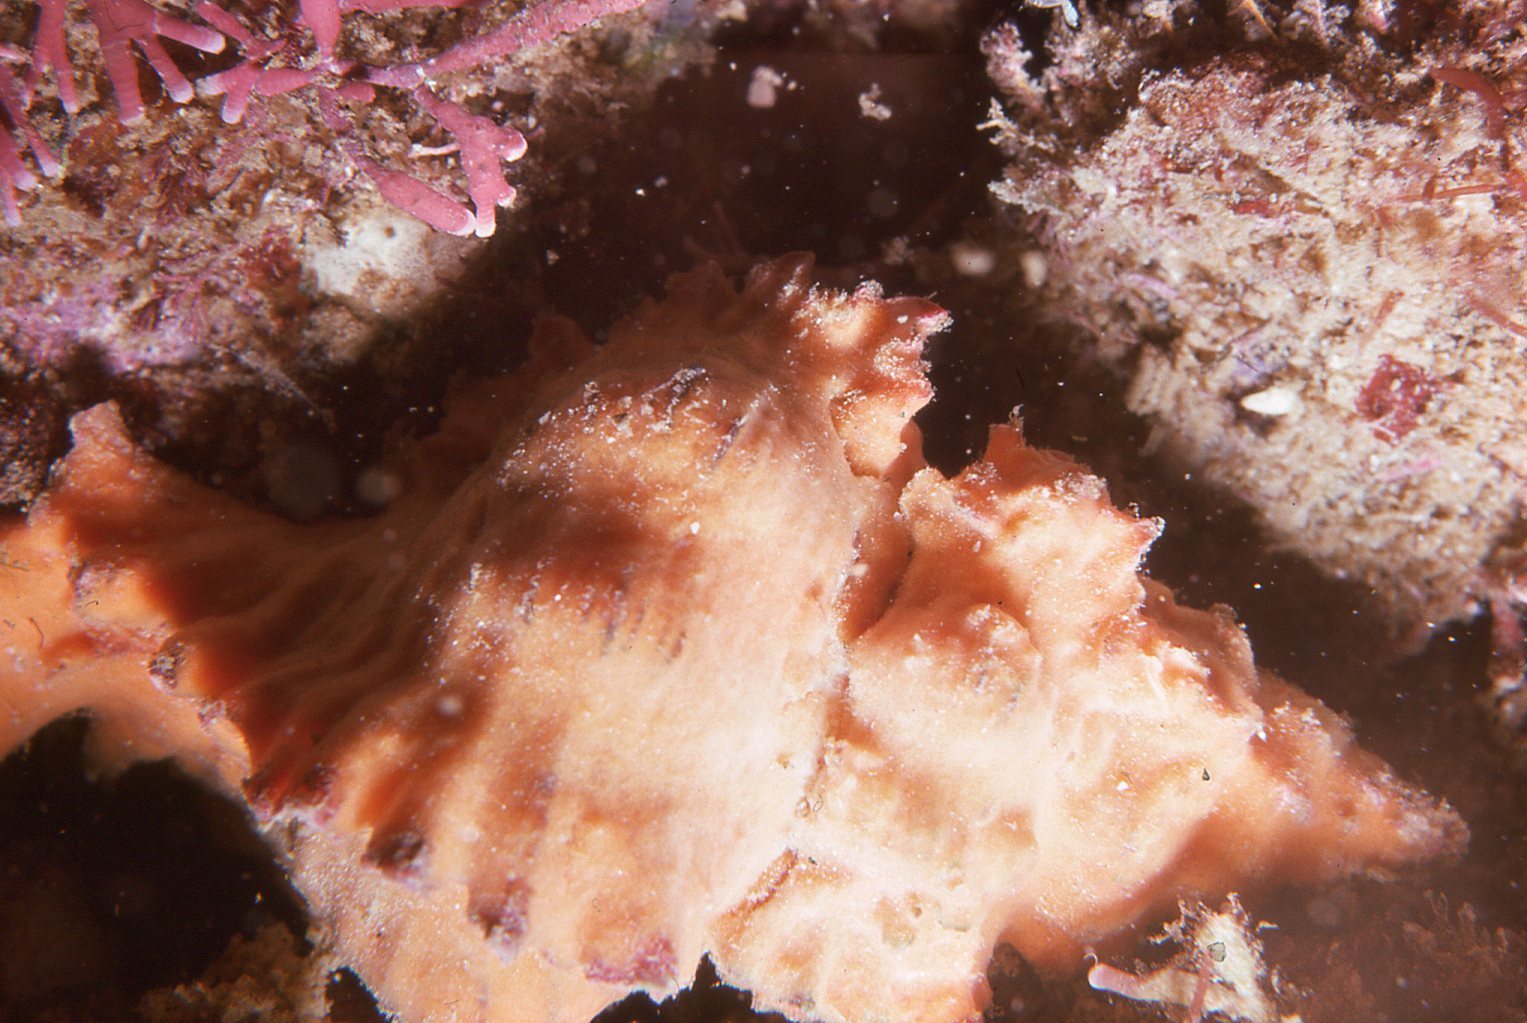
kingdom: Animalia
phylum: Mollusca
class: Gastropoda
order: Neogastropoda
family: Muricidae
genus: Chicoreus
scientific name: Chicoreus denudatus
